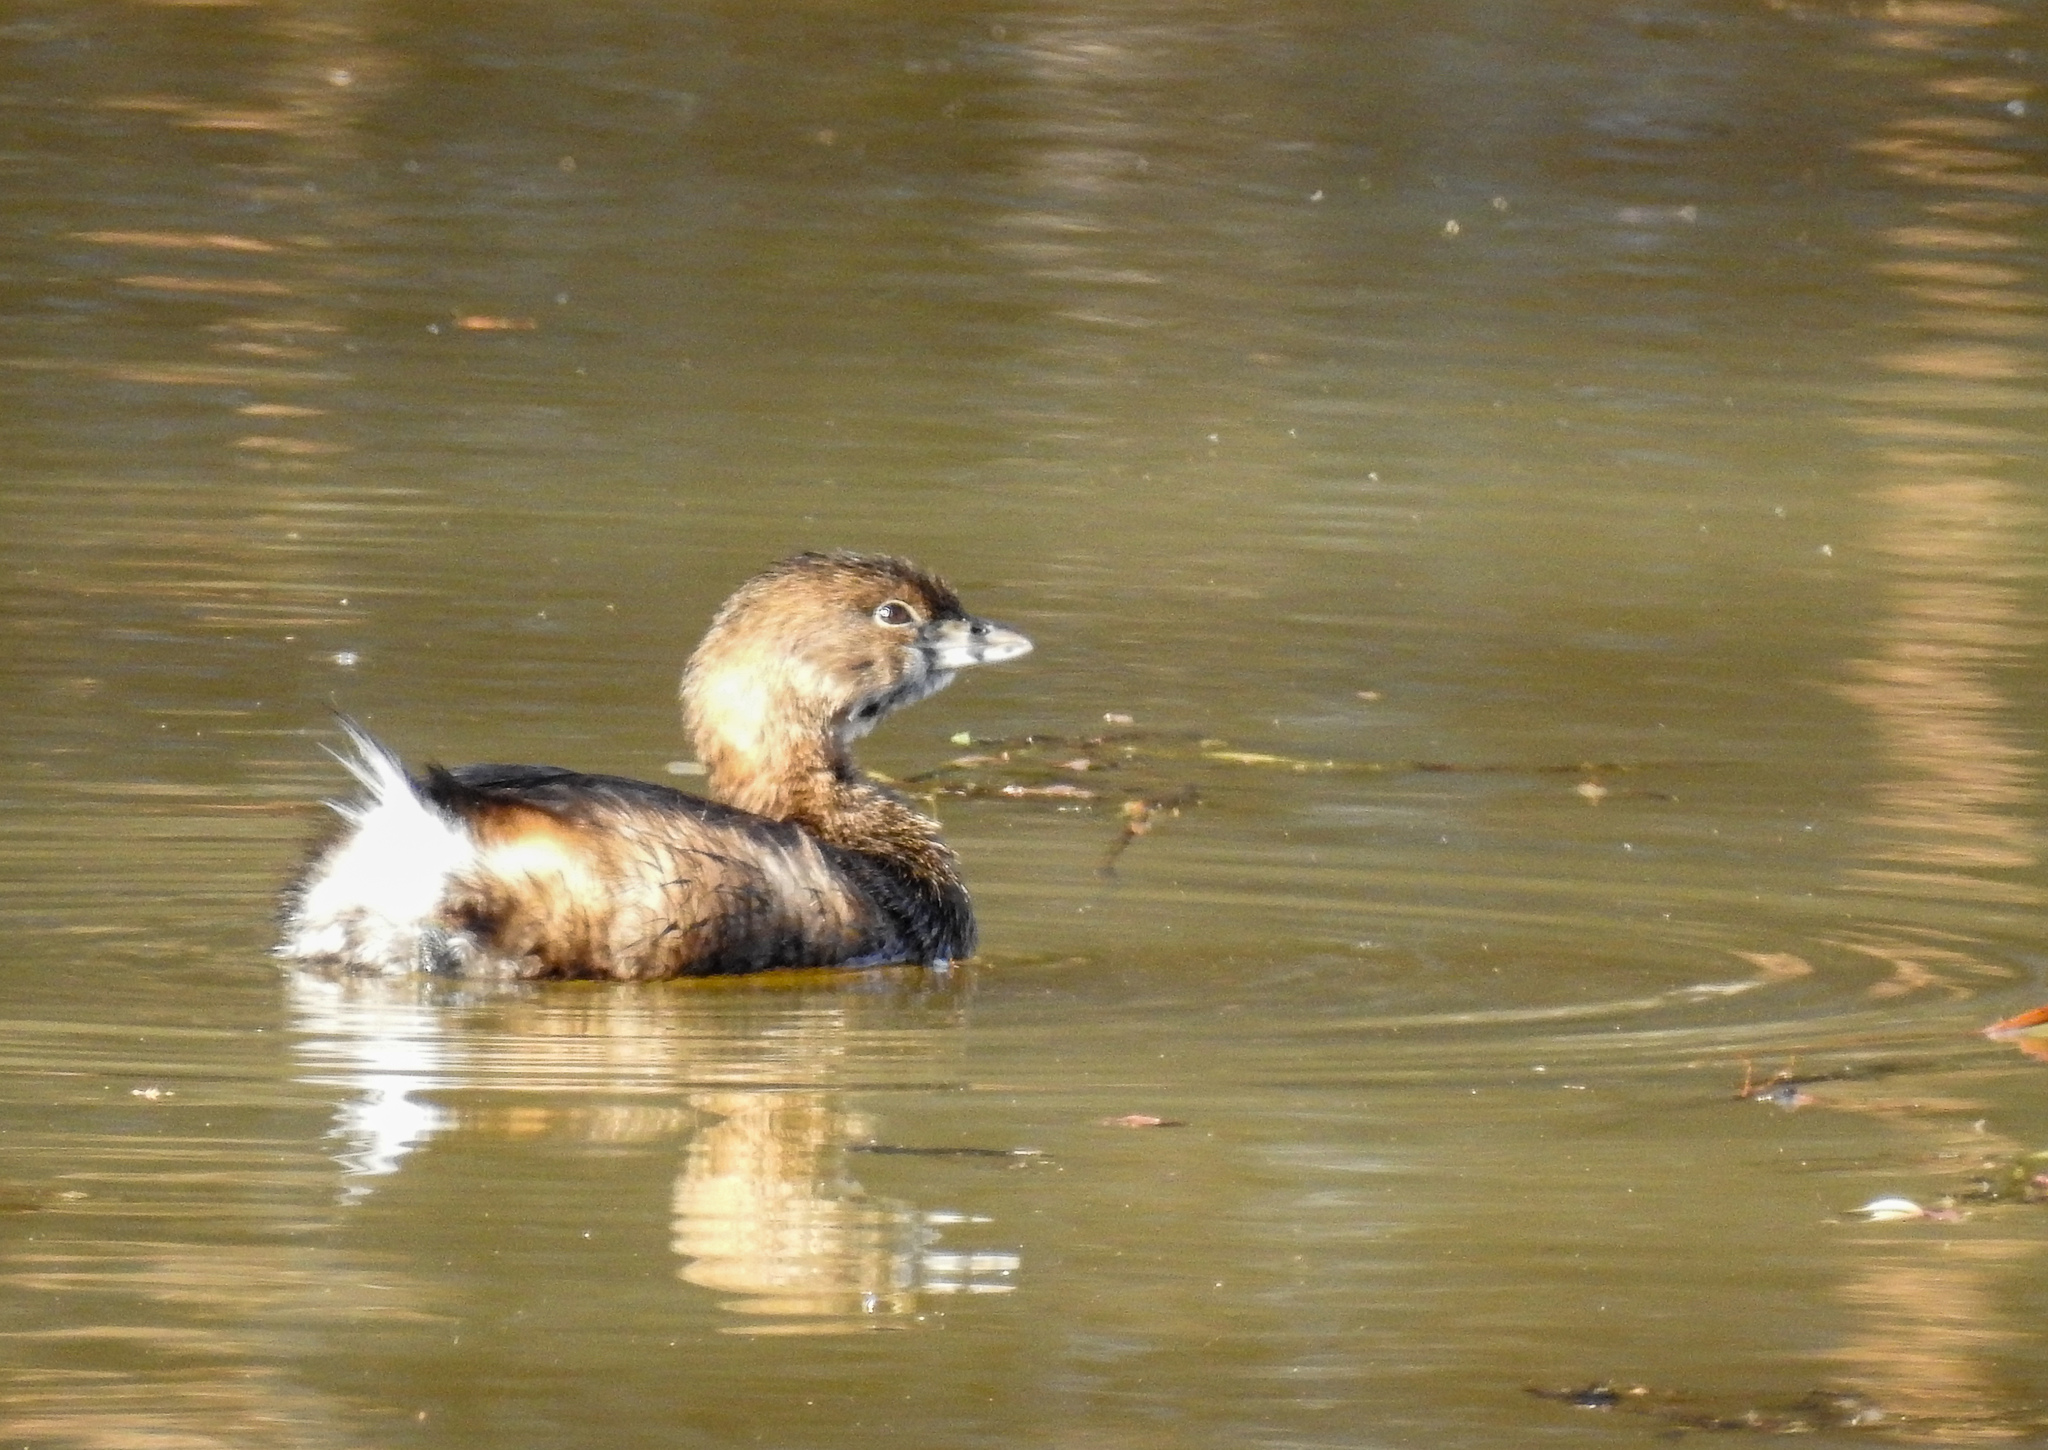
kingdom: Animalia
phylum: Chordata
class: Aves
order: Podicipediformes
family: Podicipedidae
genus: Podilymbus
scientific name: Podilymbus podiceps
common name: Pied-billed grebe
